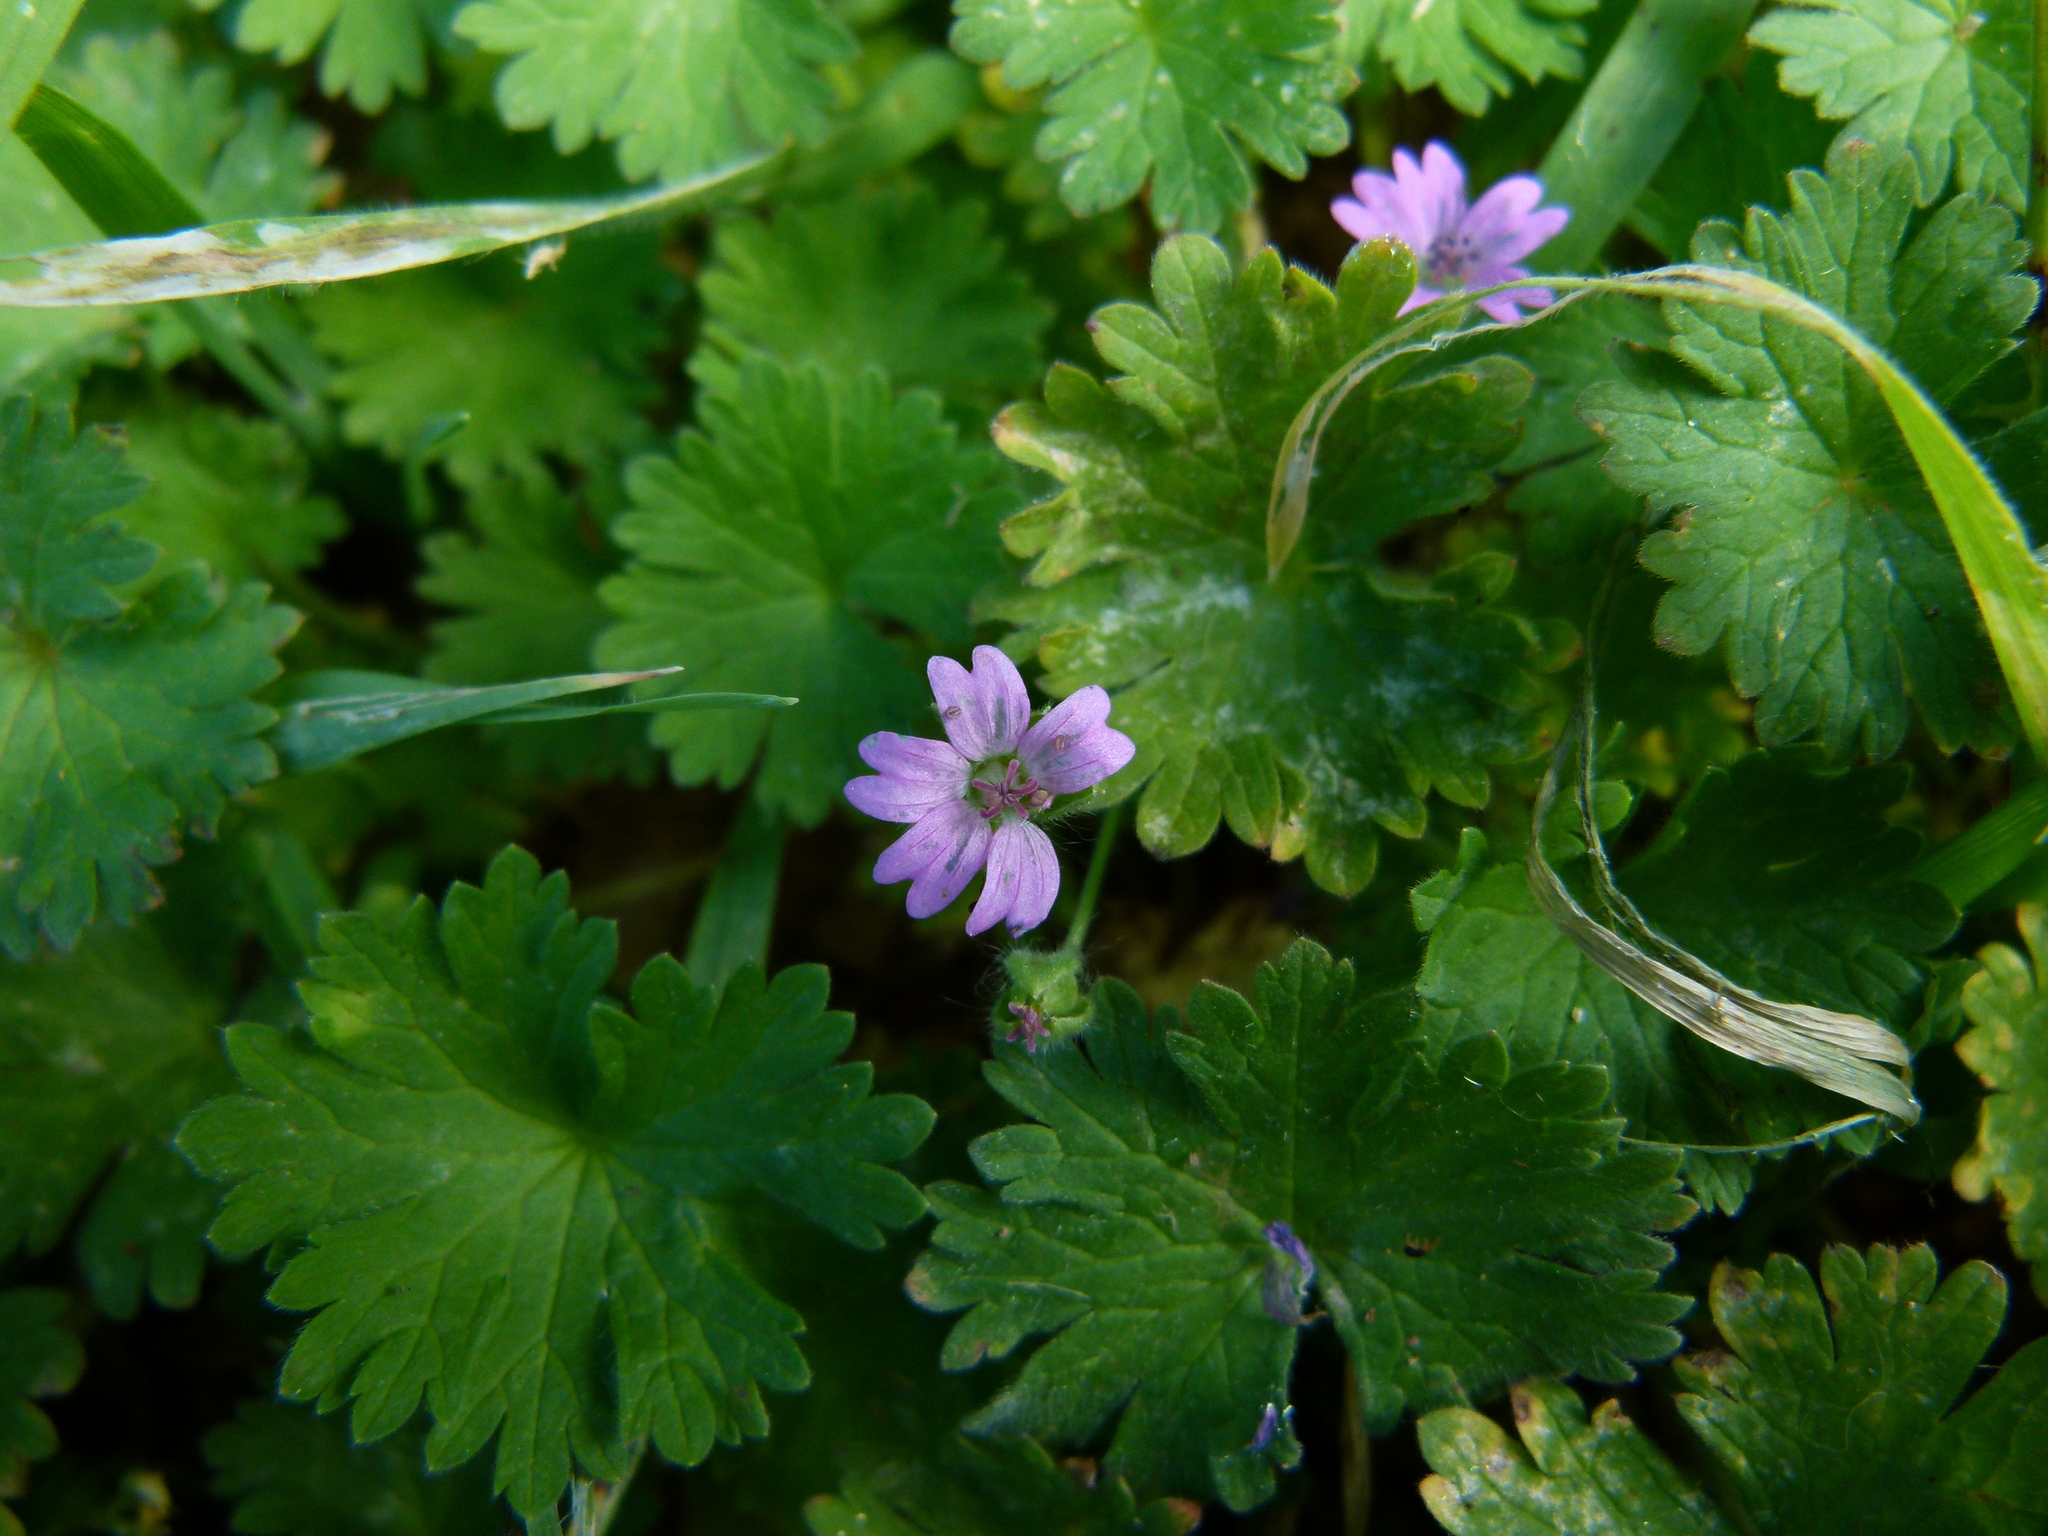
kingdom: Plantae
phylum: Tracheophyta
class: Magnoliopsida
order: Geraniales
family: Geraniaceae
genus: Geranium
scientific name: Geranium molle
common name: Dove's-foot crane's-bill
